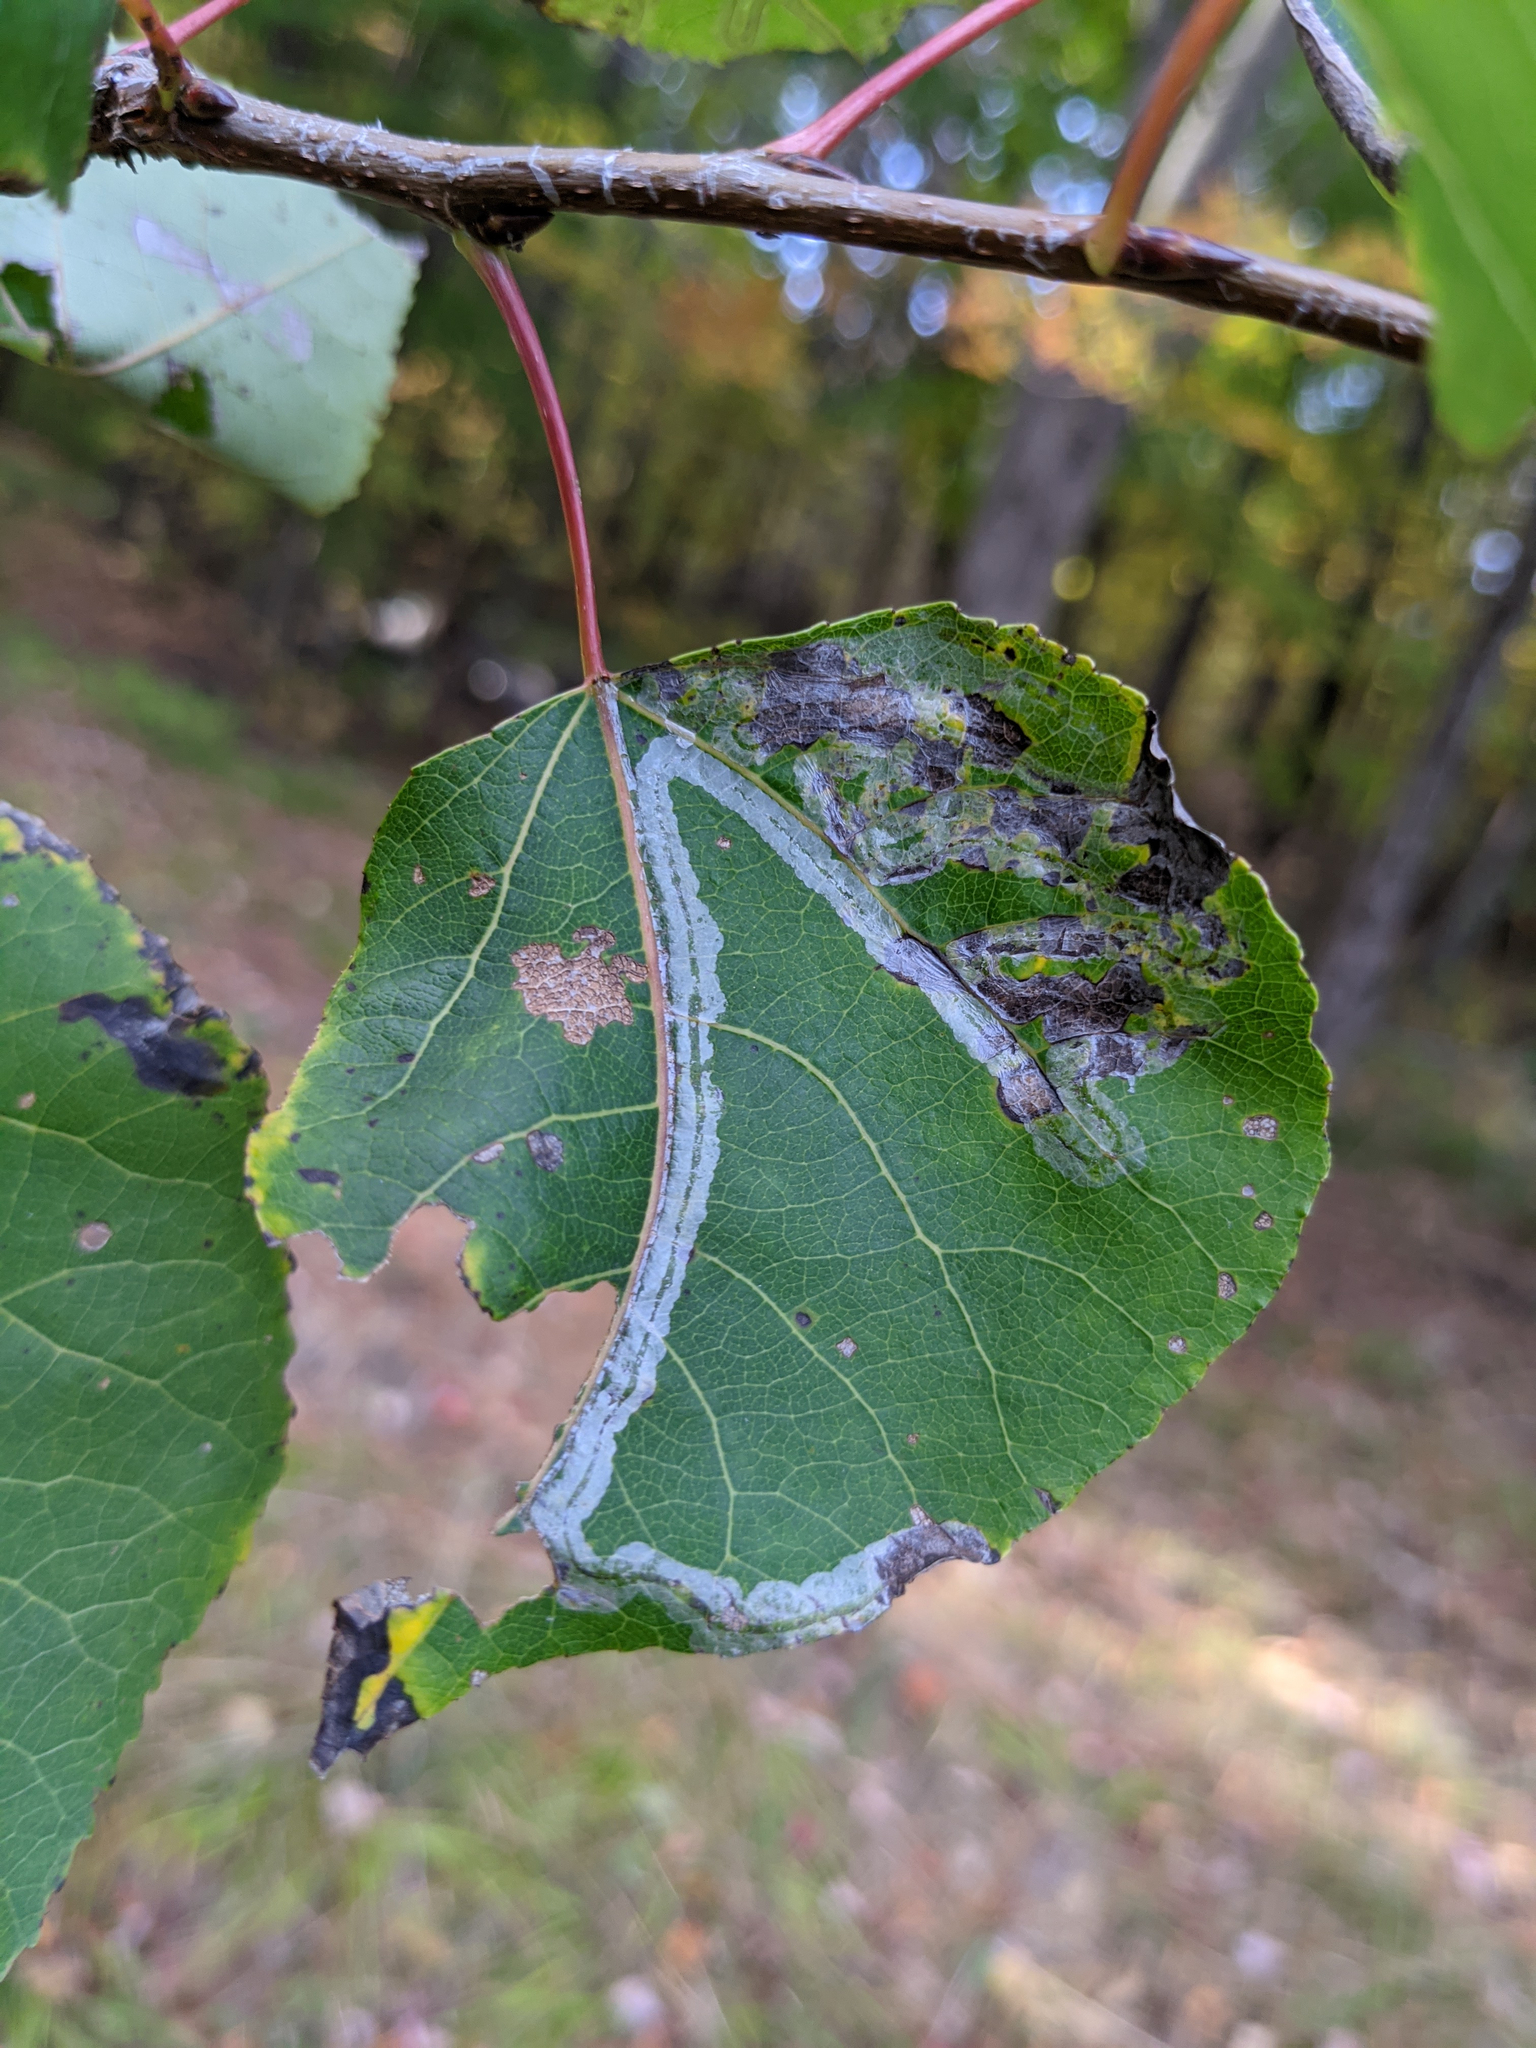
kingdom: Animalia
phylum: Arthropoda
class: Insecta
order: Lepidoptera
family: Gracillariidae
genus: Phyllocnistis
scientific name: Phyllocnistis populiella
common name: Aspen serpentine leafminer moth
